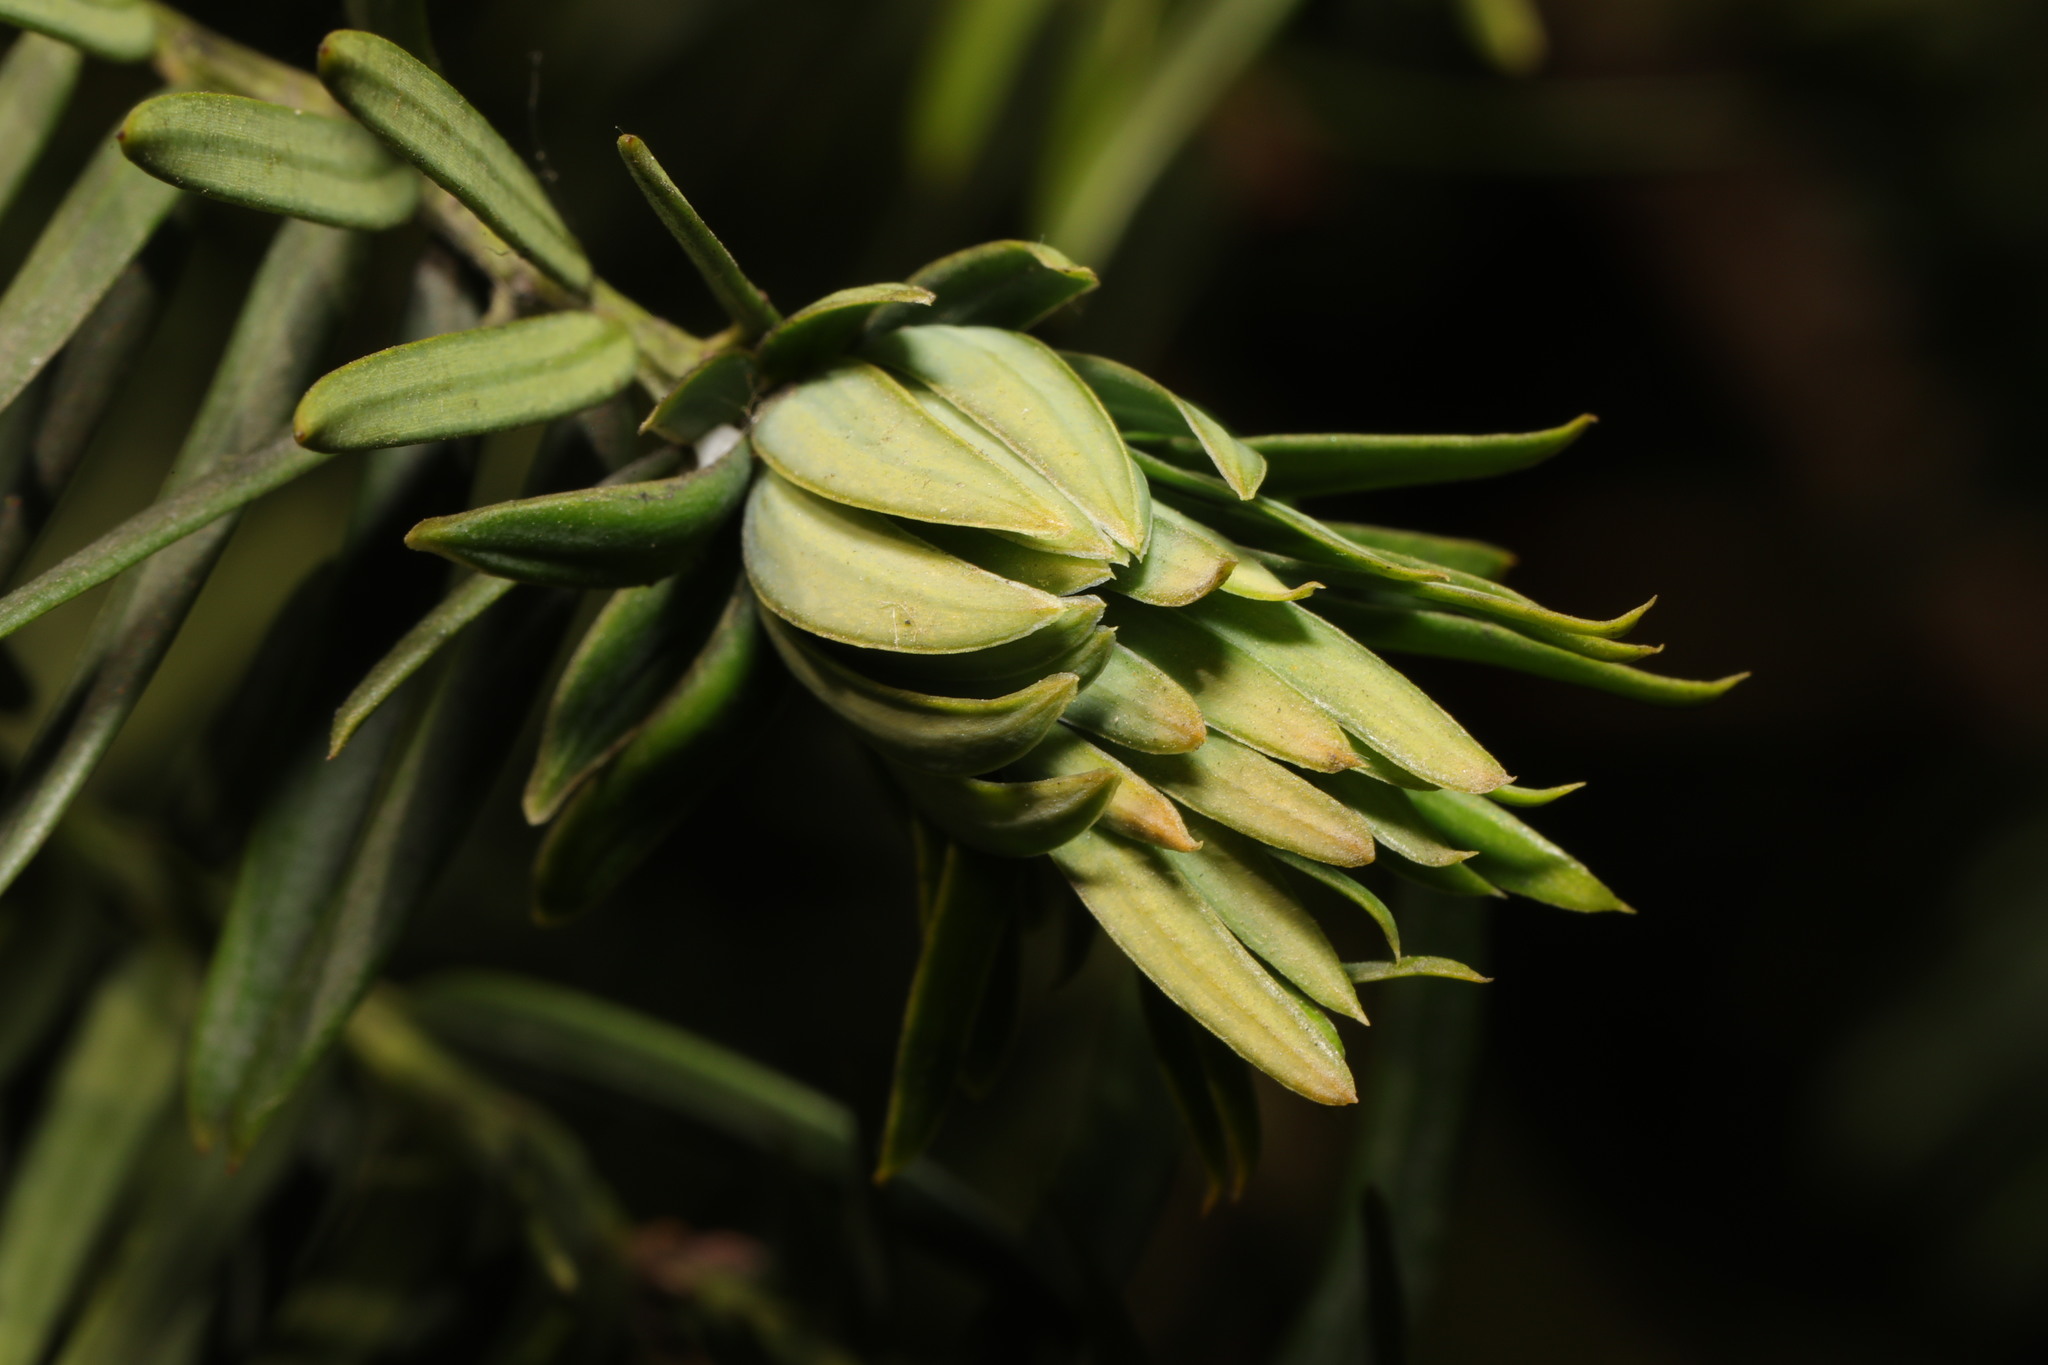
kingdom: Animalia
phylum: Arthropoda
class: Insecta
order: Diptera
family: Cecidomyiidae
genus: Taxomyia
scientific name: Taxomyia taxi
